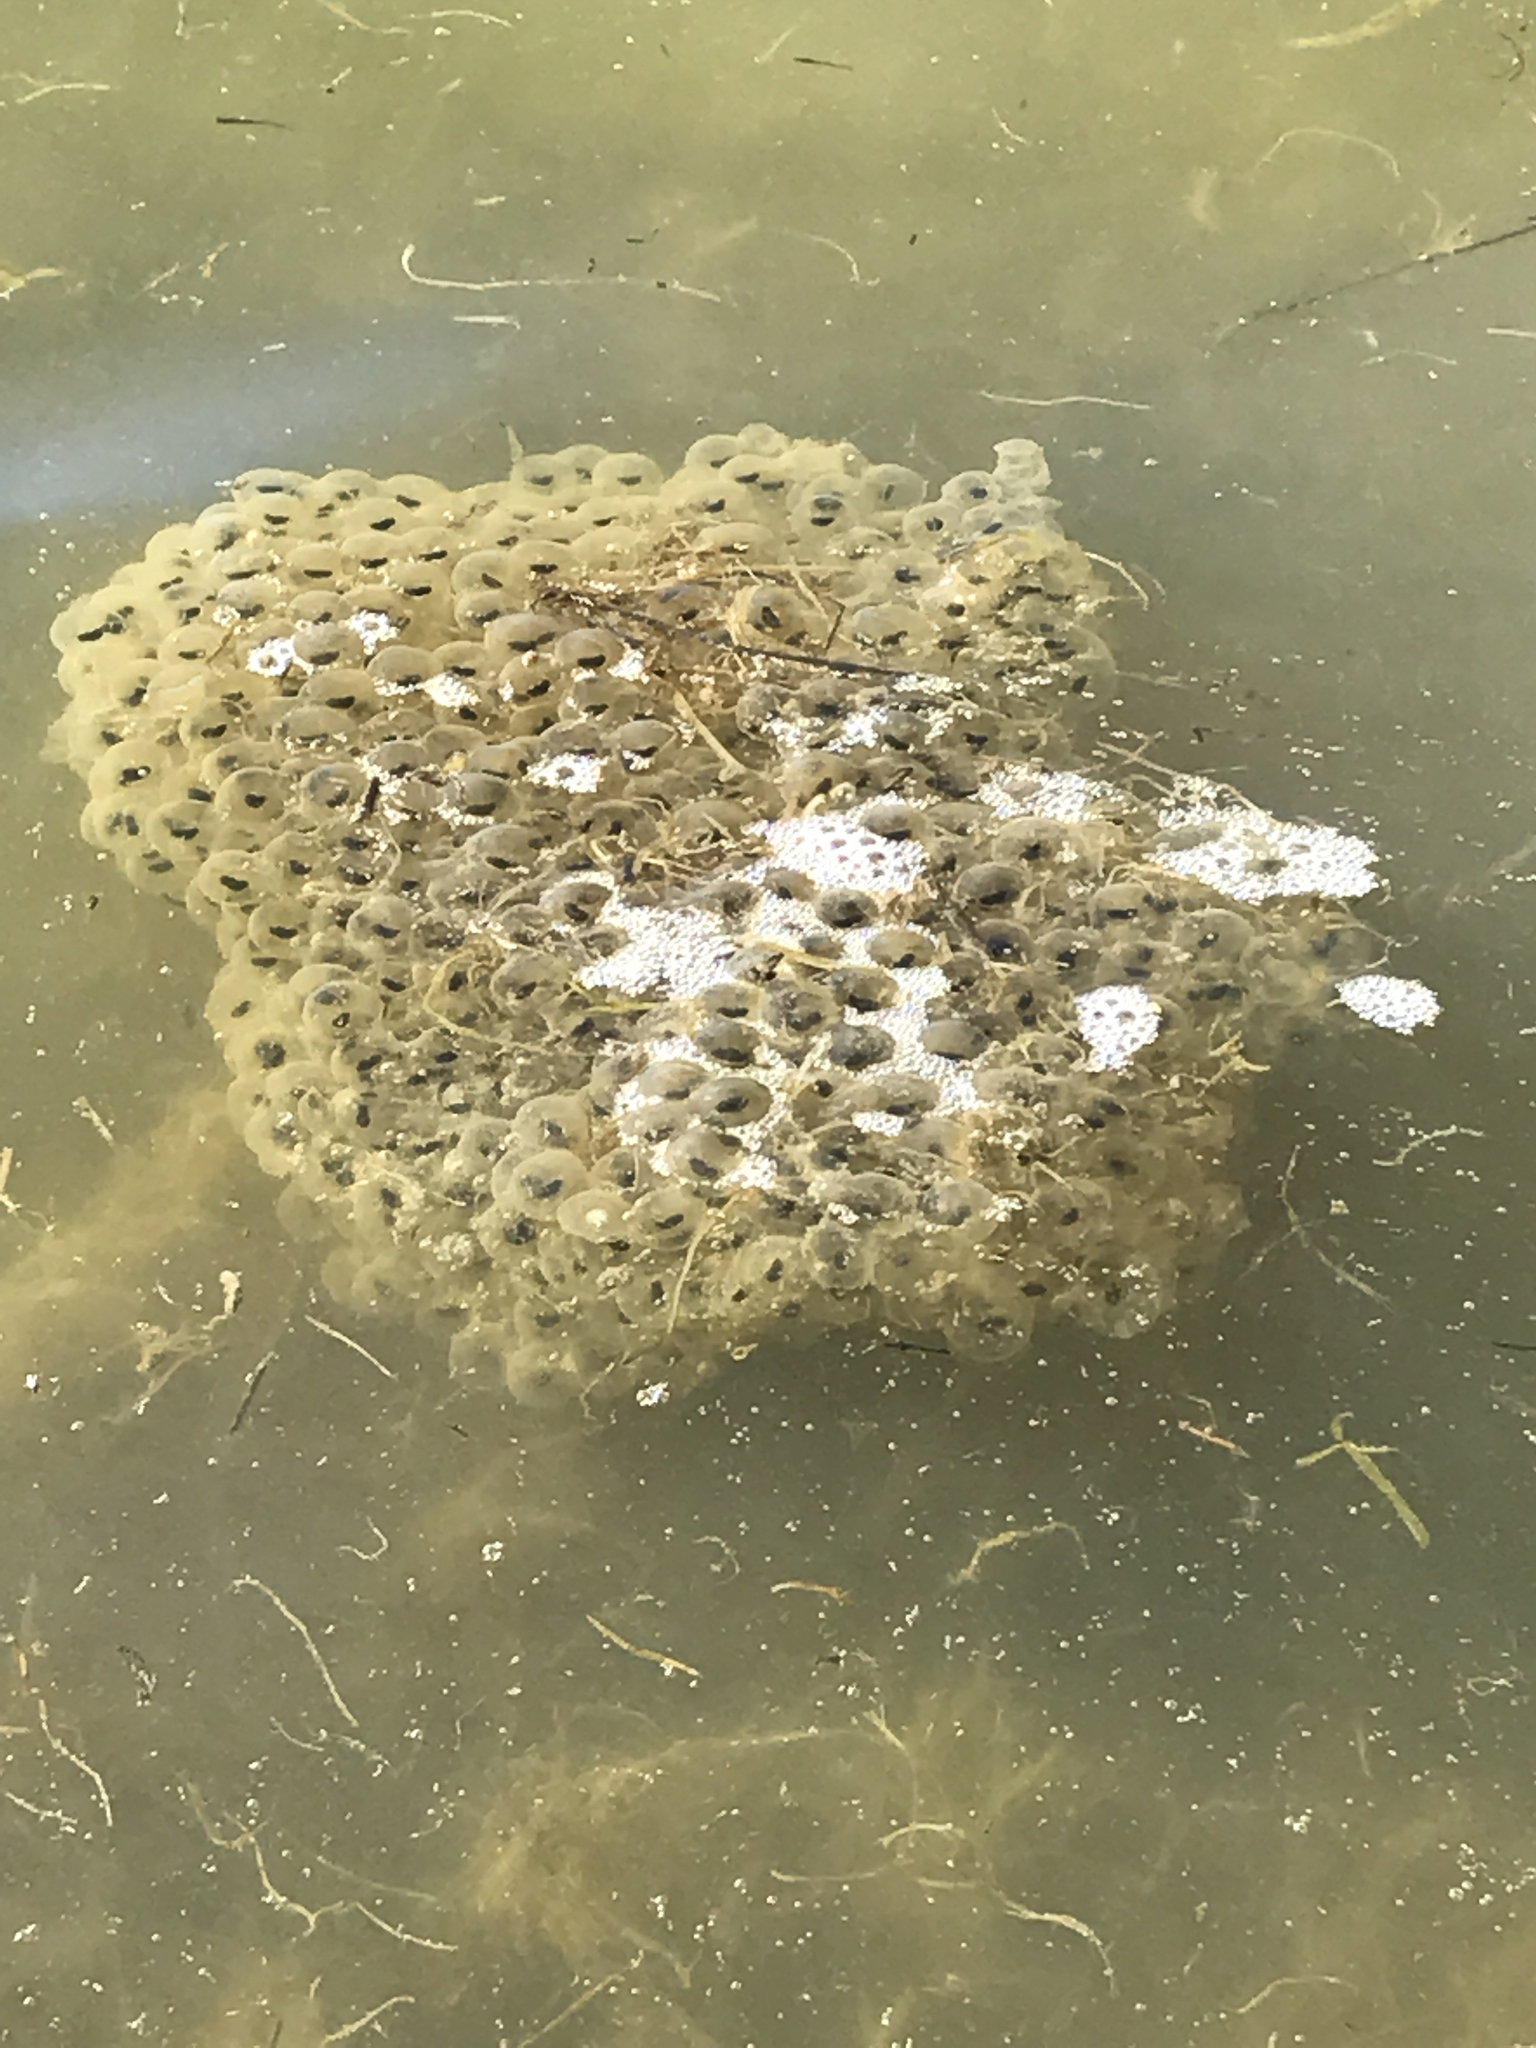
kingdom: Animalia
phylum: Chordata
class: Amphibia
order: Anura
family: Ranidae
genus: Rana
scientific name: Rana draytonii
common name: California red-legged frog
